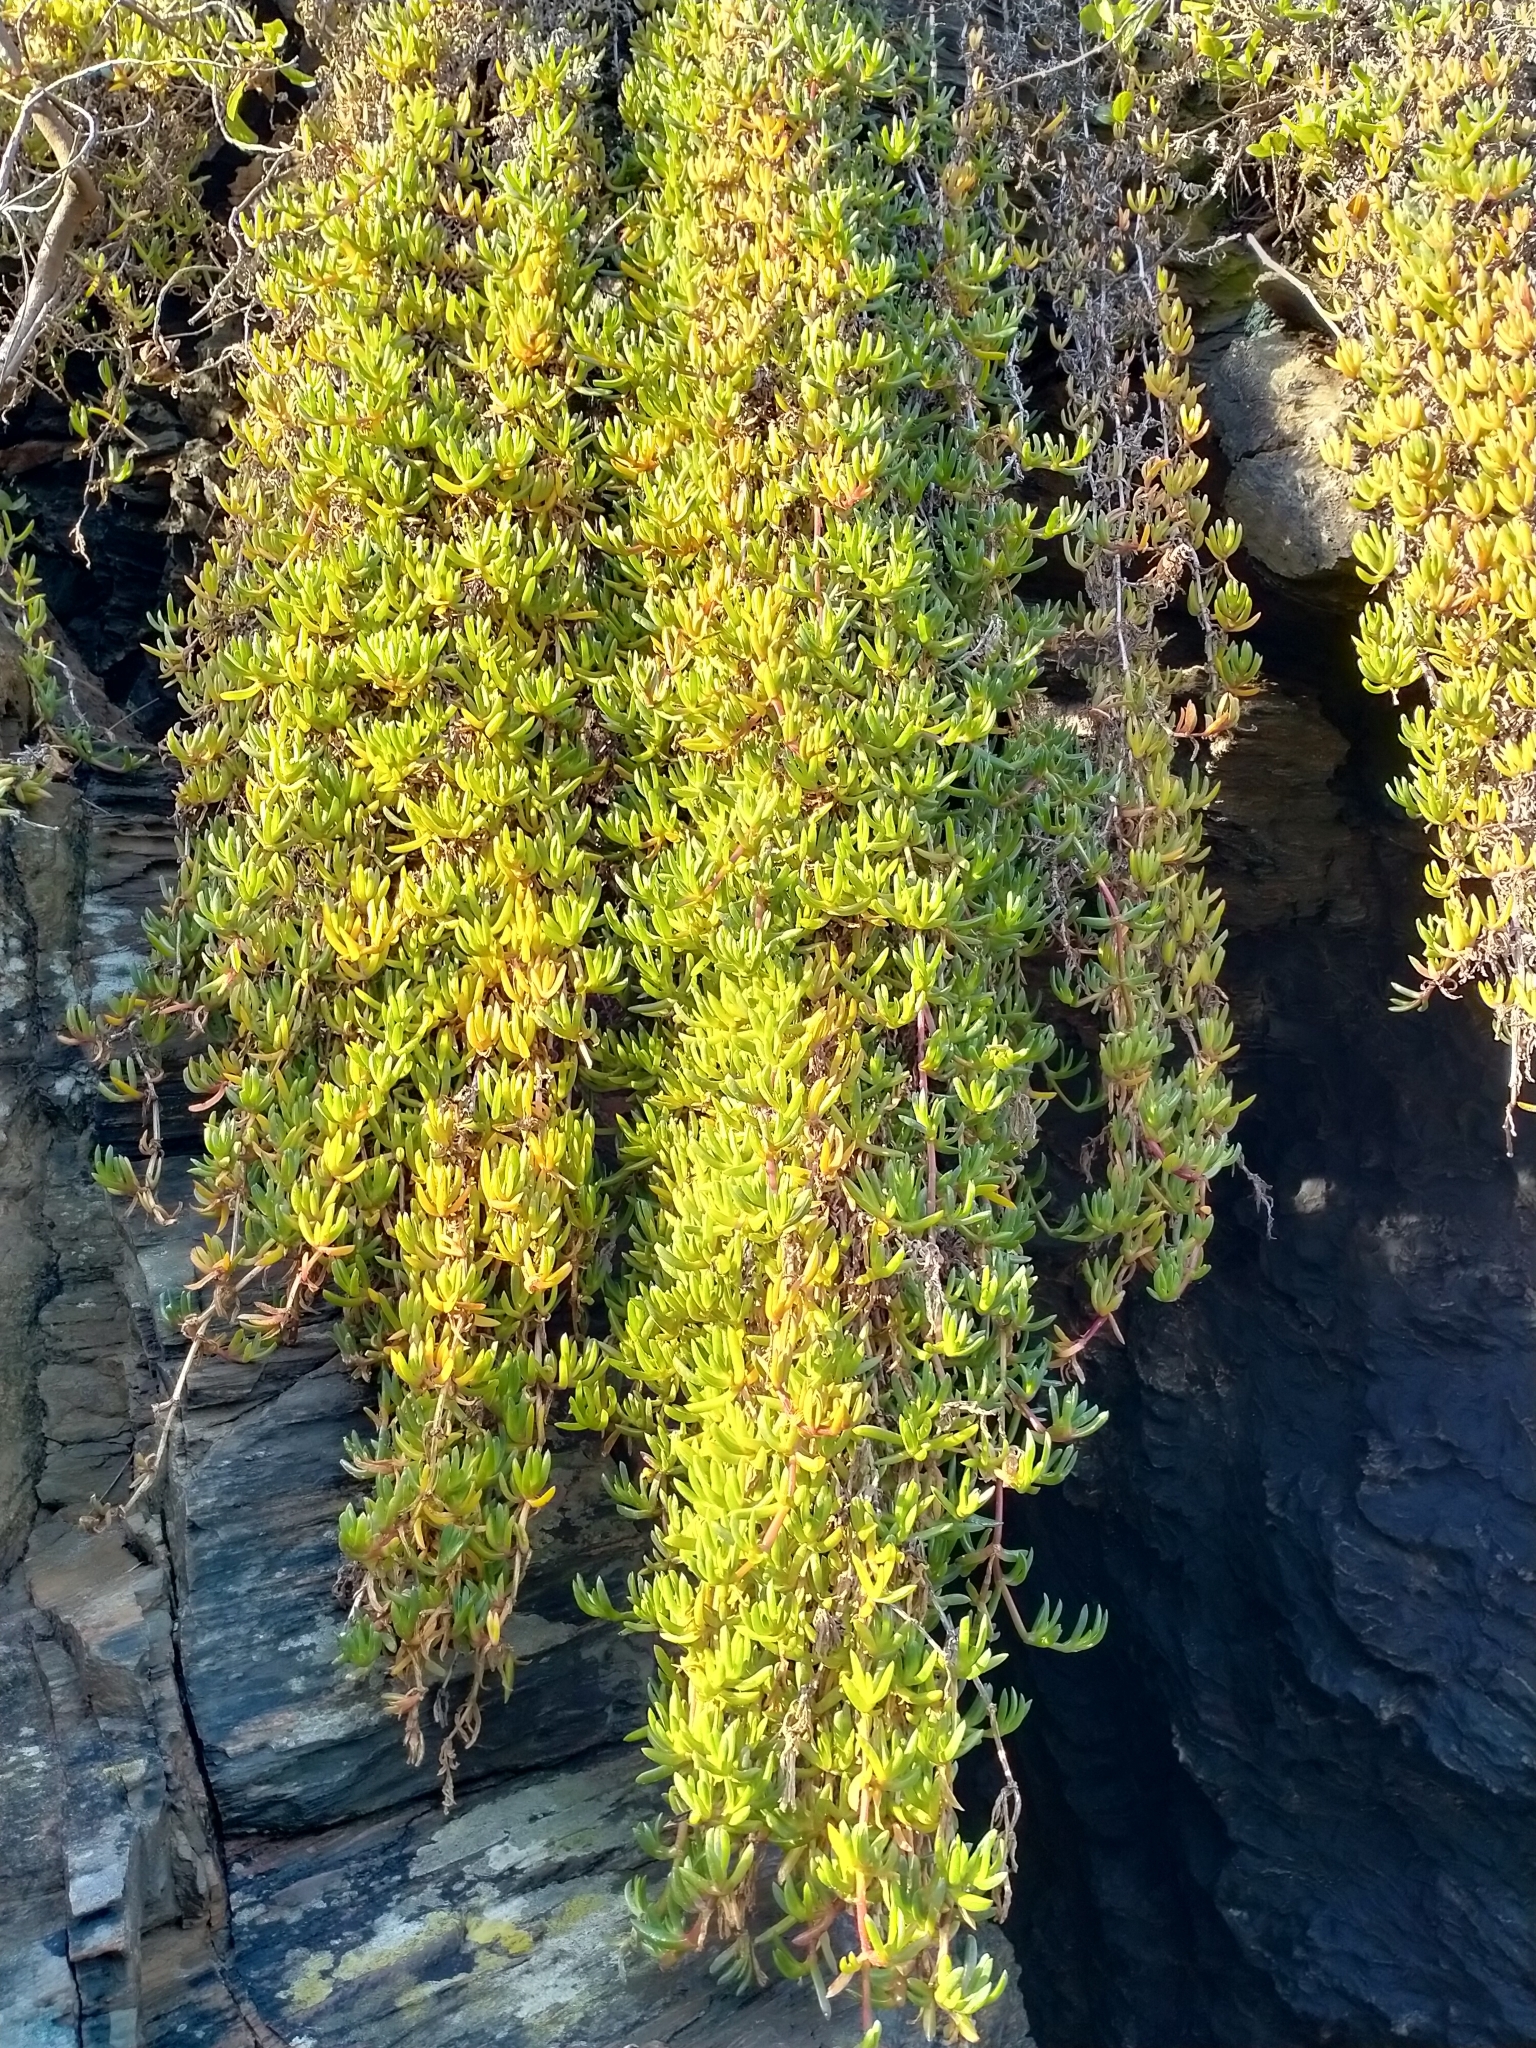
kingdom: Plantae
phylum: Tracheophyta
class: Magnoliopsida
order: Caryophyllales
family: Aizoaceae
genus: Disphyma
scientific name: Disphyma australe
